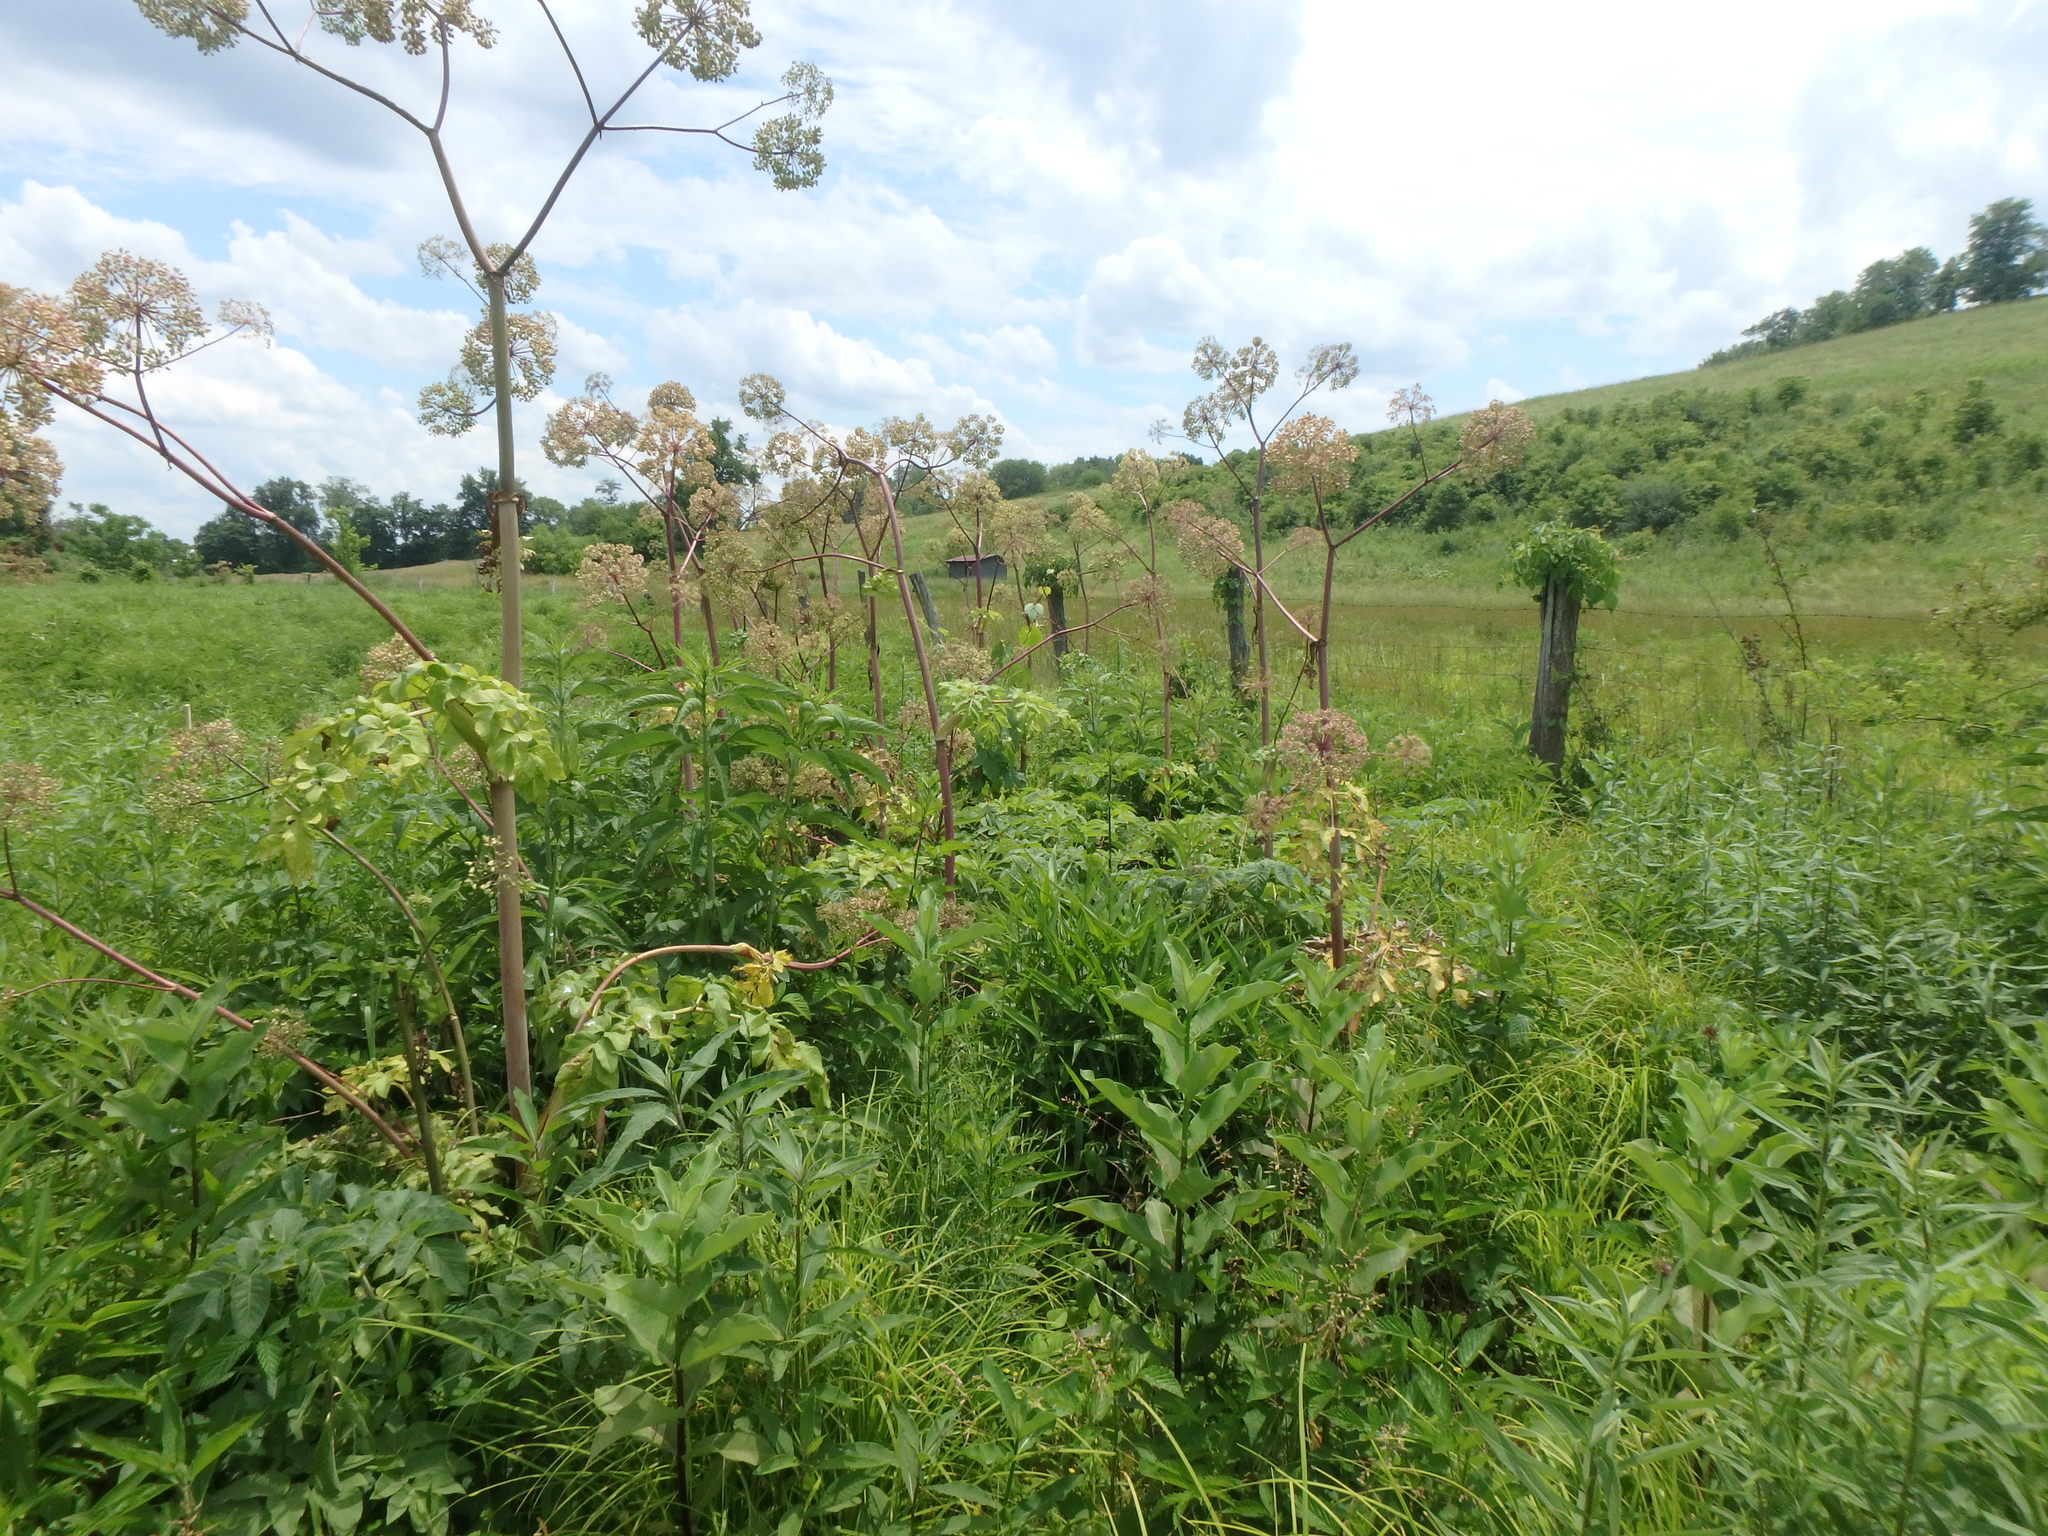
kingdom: Plantae
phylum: Tracheophyta
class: Magnoliopsida
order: Apiales
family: Apiaceae
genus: Angelica
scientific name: Angelica atropurpurea
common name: Great angelica
